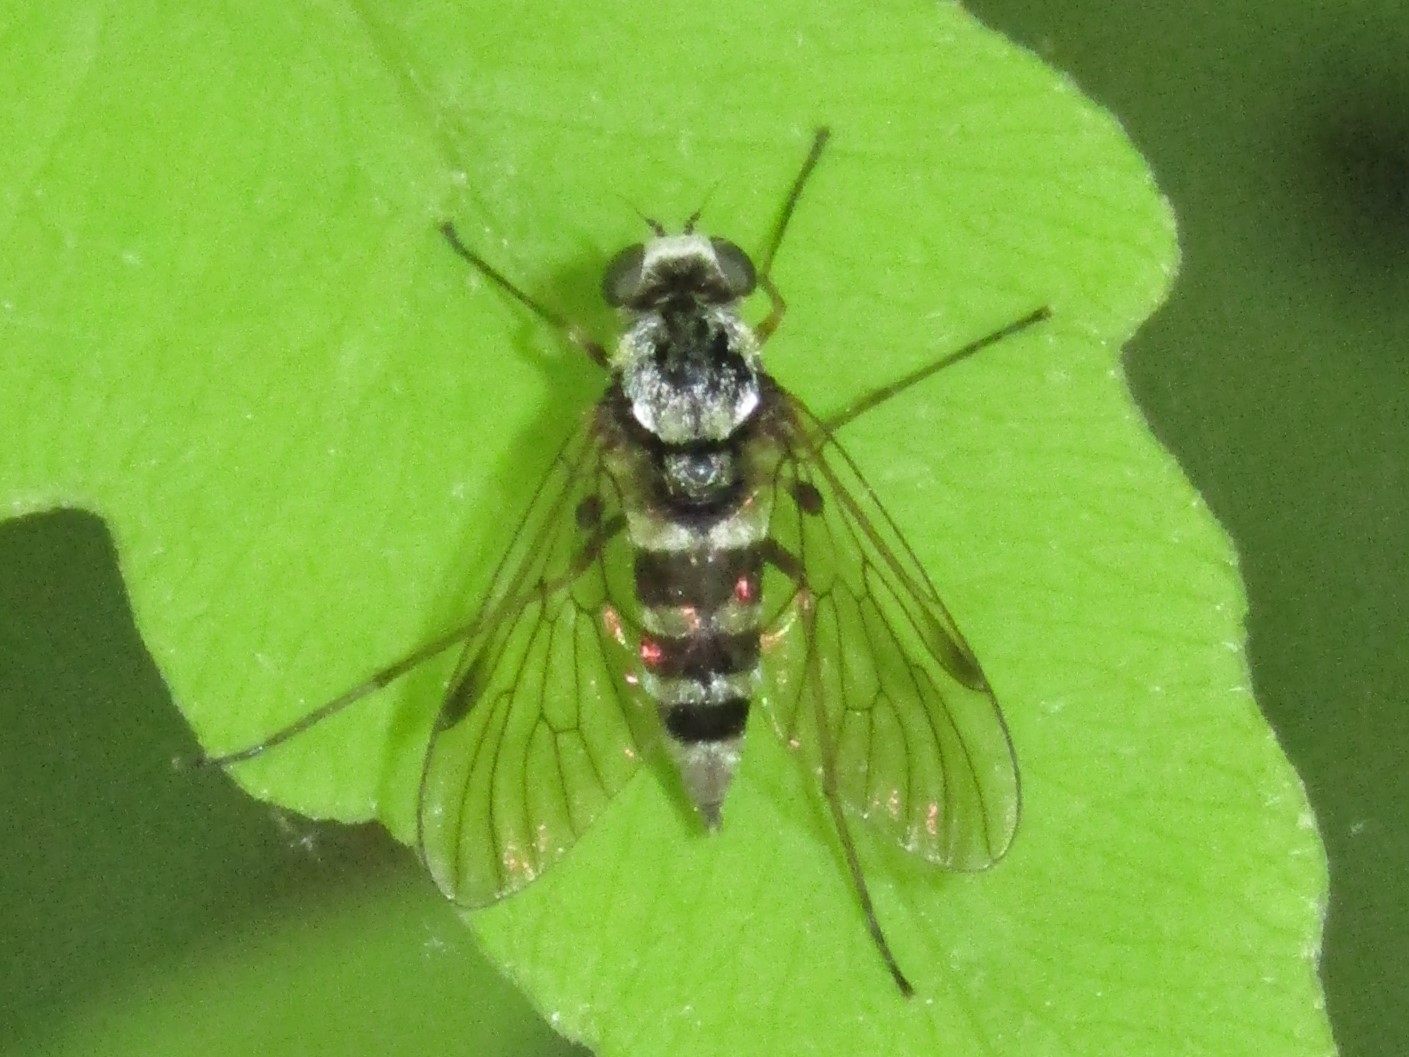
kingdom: Animalia
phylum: Arthropoda
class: Insecta
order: Diptera
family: Rhagionidae
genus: Chrysopilus
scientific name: Chrysopilus fasciatus
